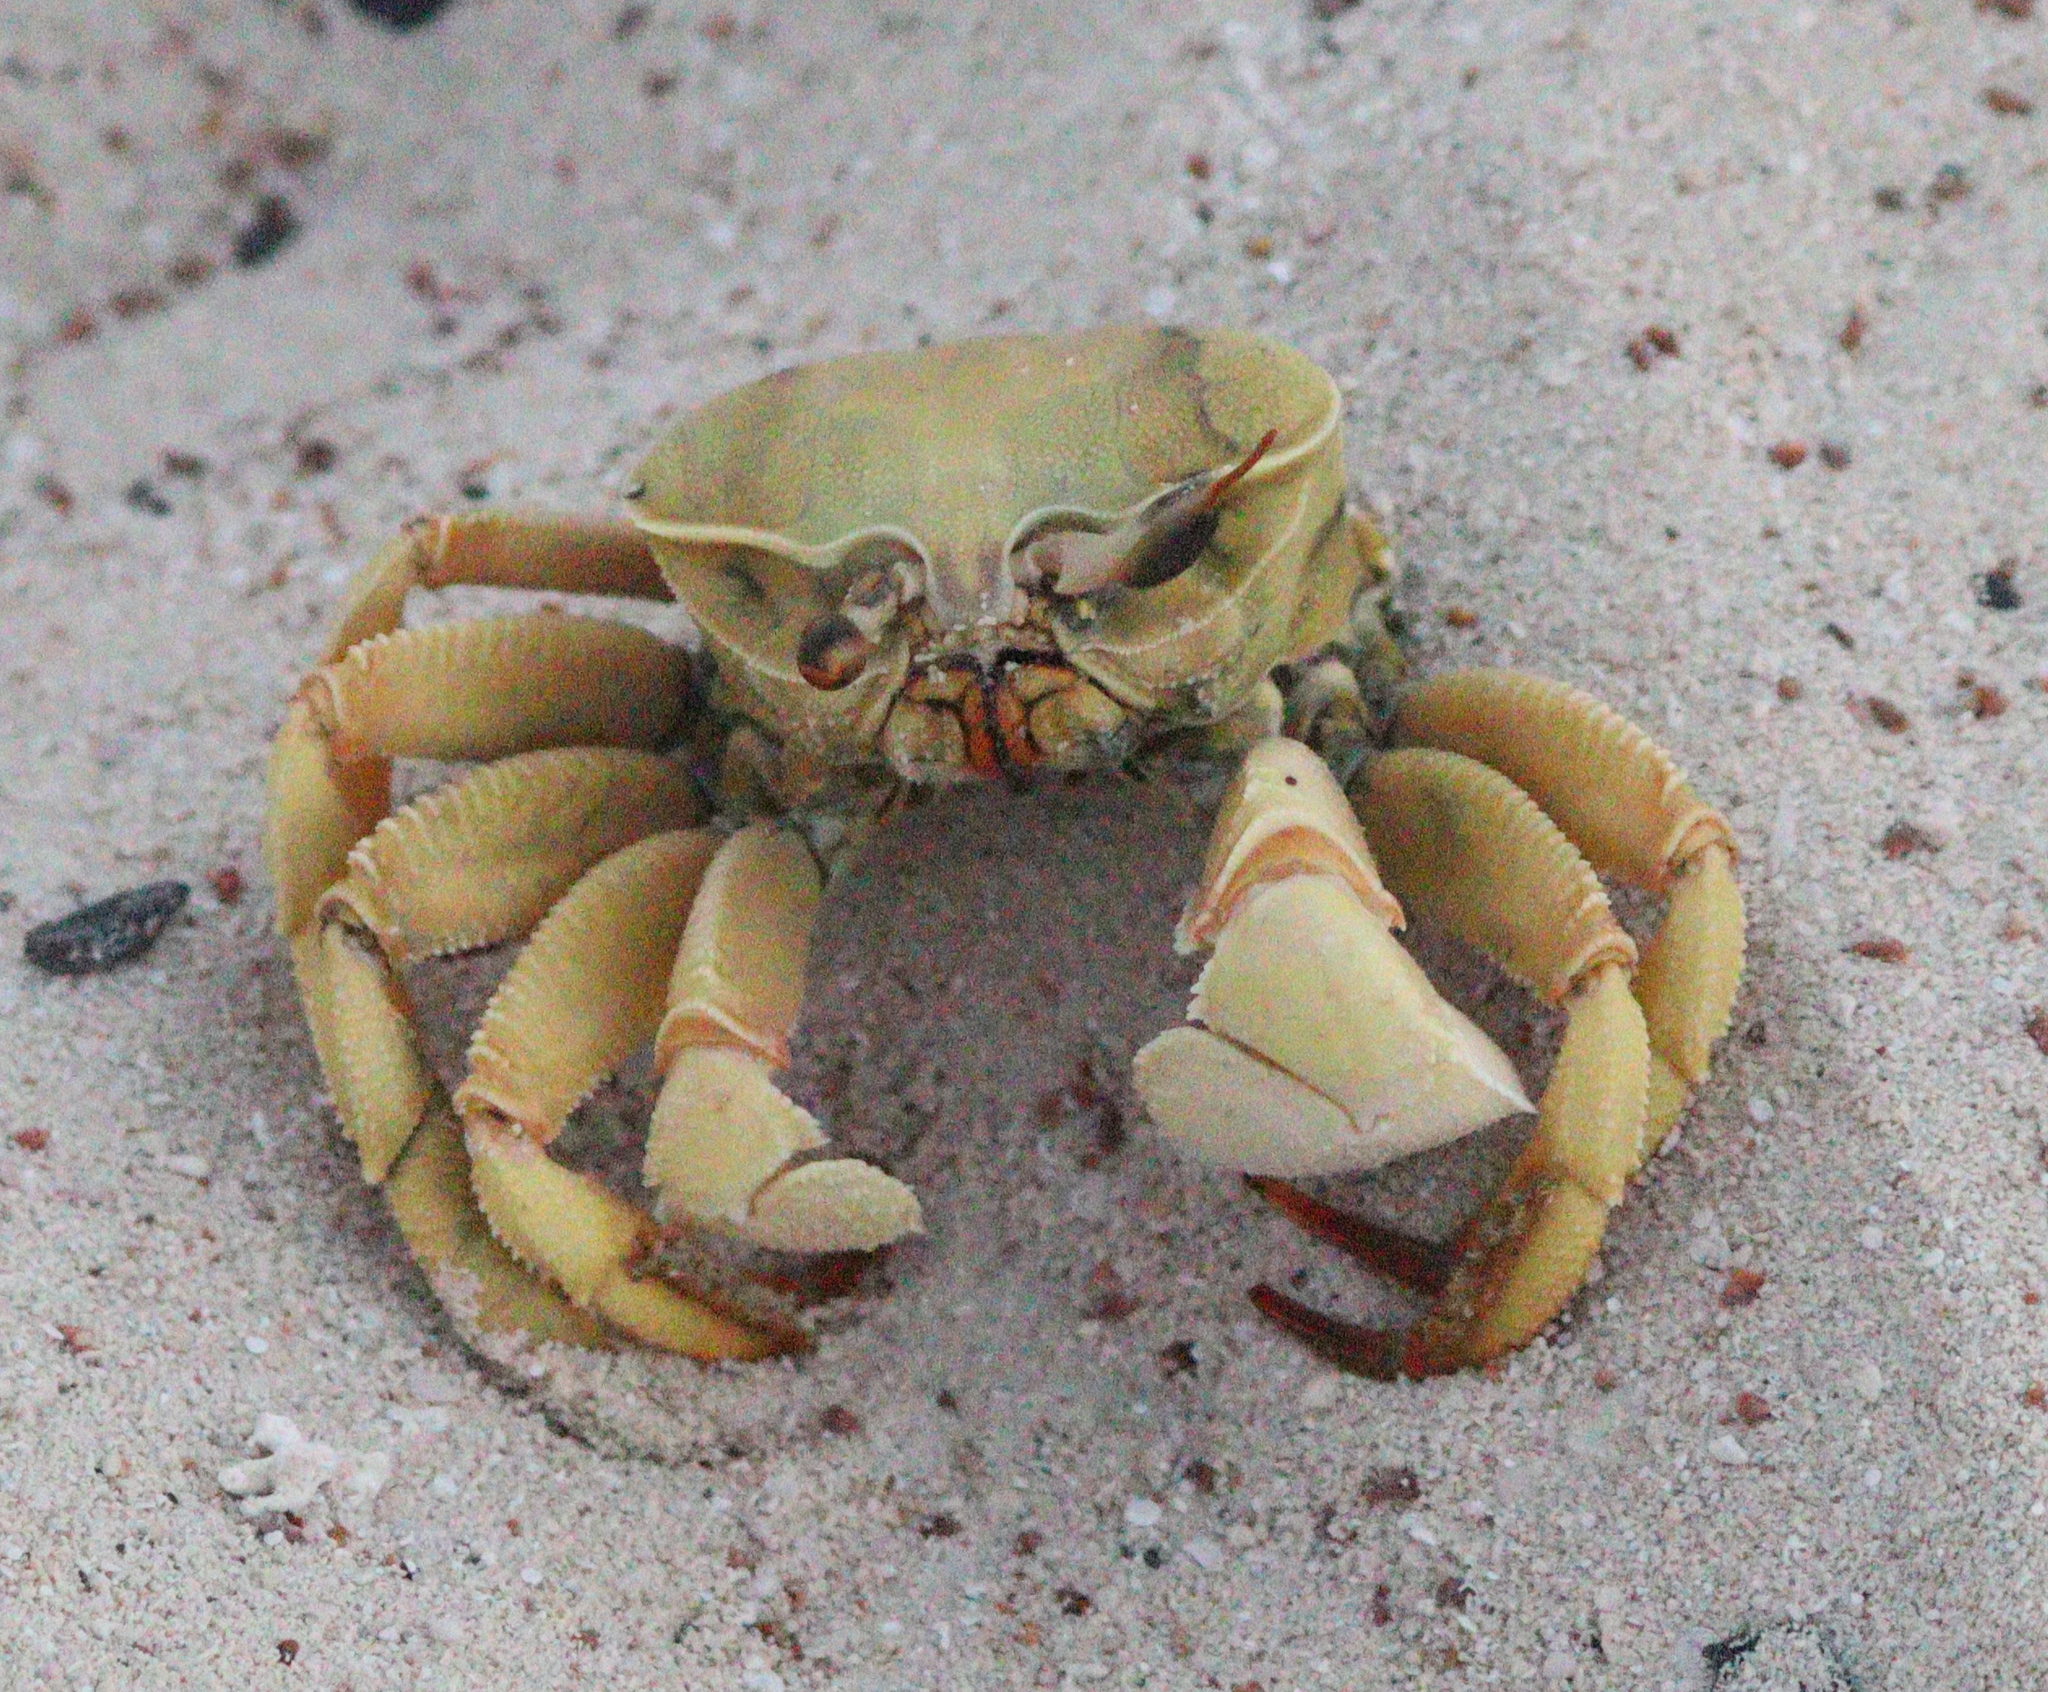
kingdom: Animalia
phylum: Arthropoda
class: Malacostraca
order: Decapoda
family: Ocypodidae
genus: Ocypode
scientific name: Ocypode saratan
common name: Red sea ghost crab
